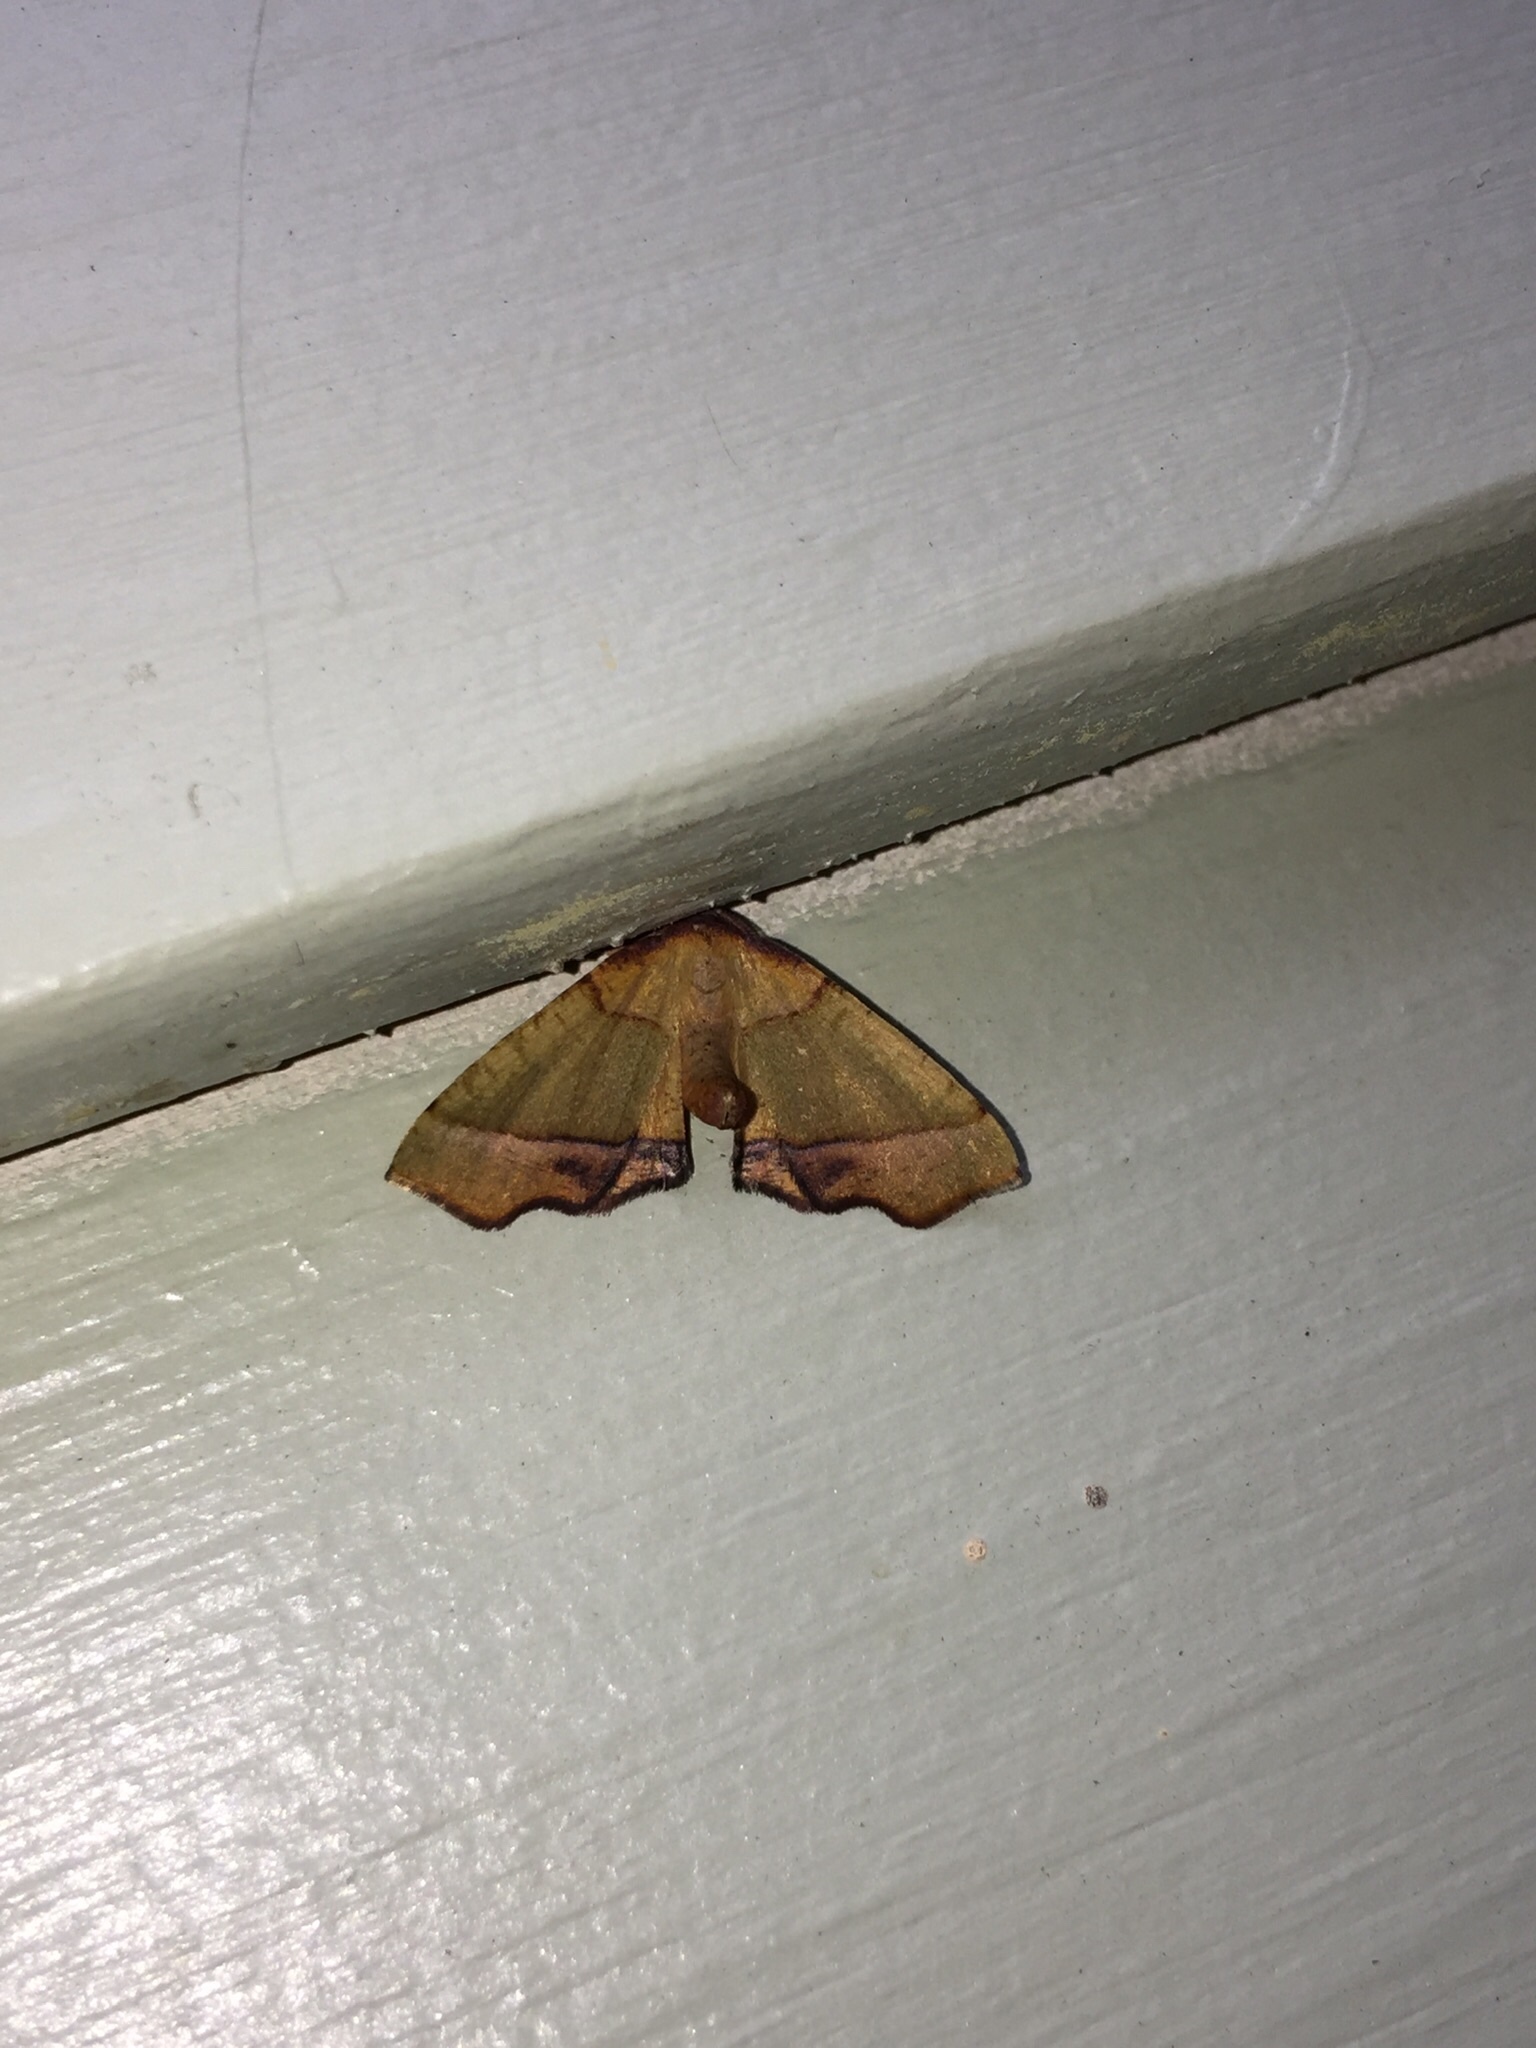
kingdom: Animalia
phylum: Arthropoda
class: Insecta
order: Lepidoptera
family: Geometridae
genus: Plagodis
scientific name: Plagodis phlogosaria
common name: Straight-lined plagodis
